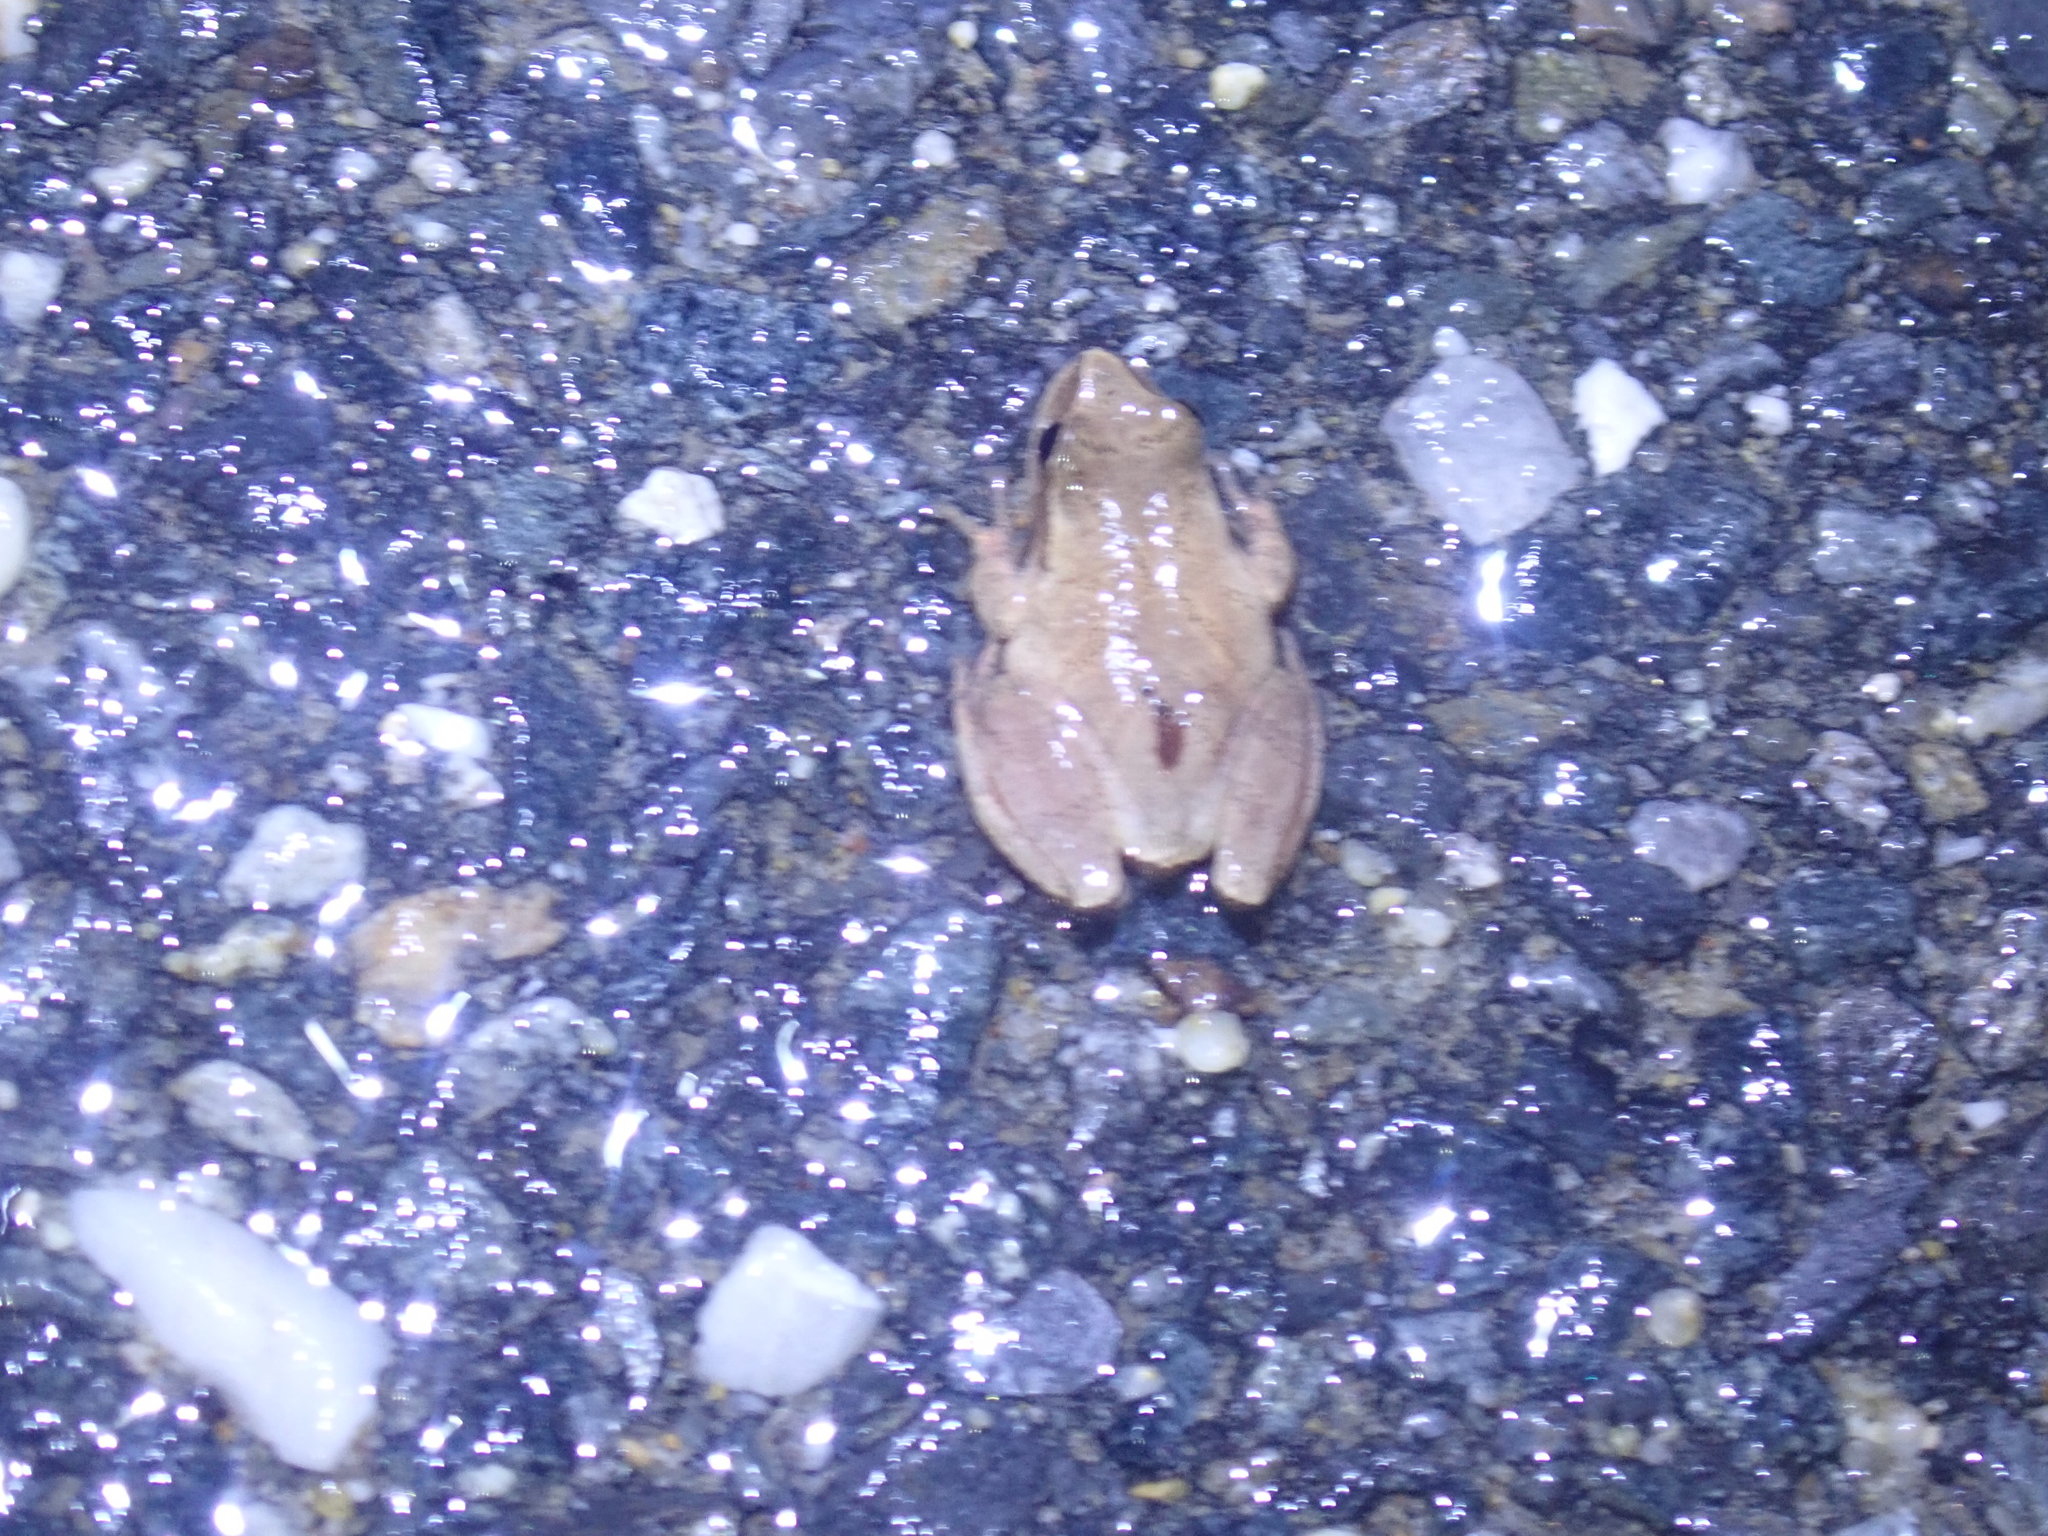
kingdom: Animalia
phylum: Chordata
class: Amphibia
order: Anura
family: Hylidae
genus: Pseudacris
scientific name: Pseudacris crucifer
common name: Spring peeper
